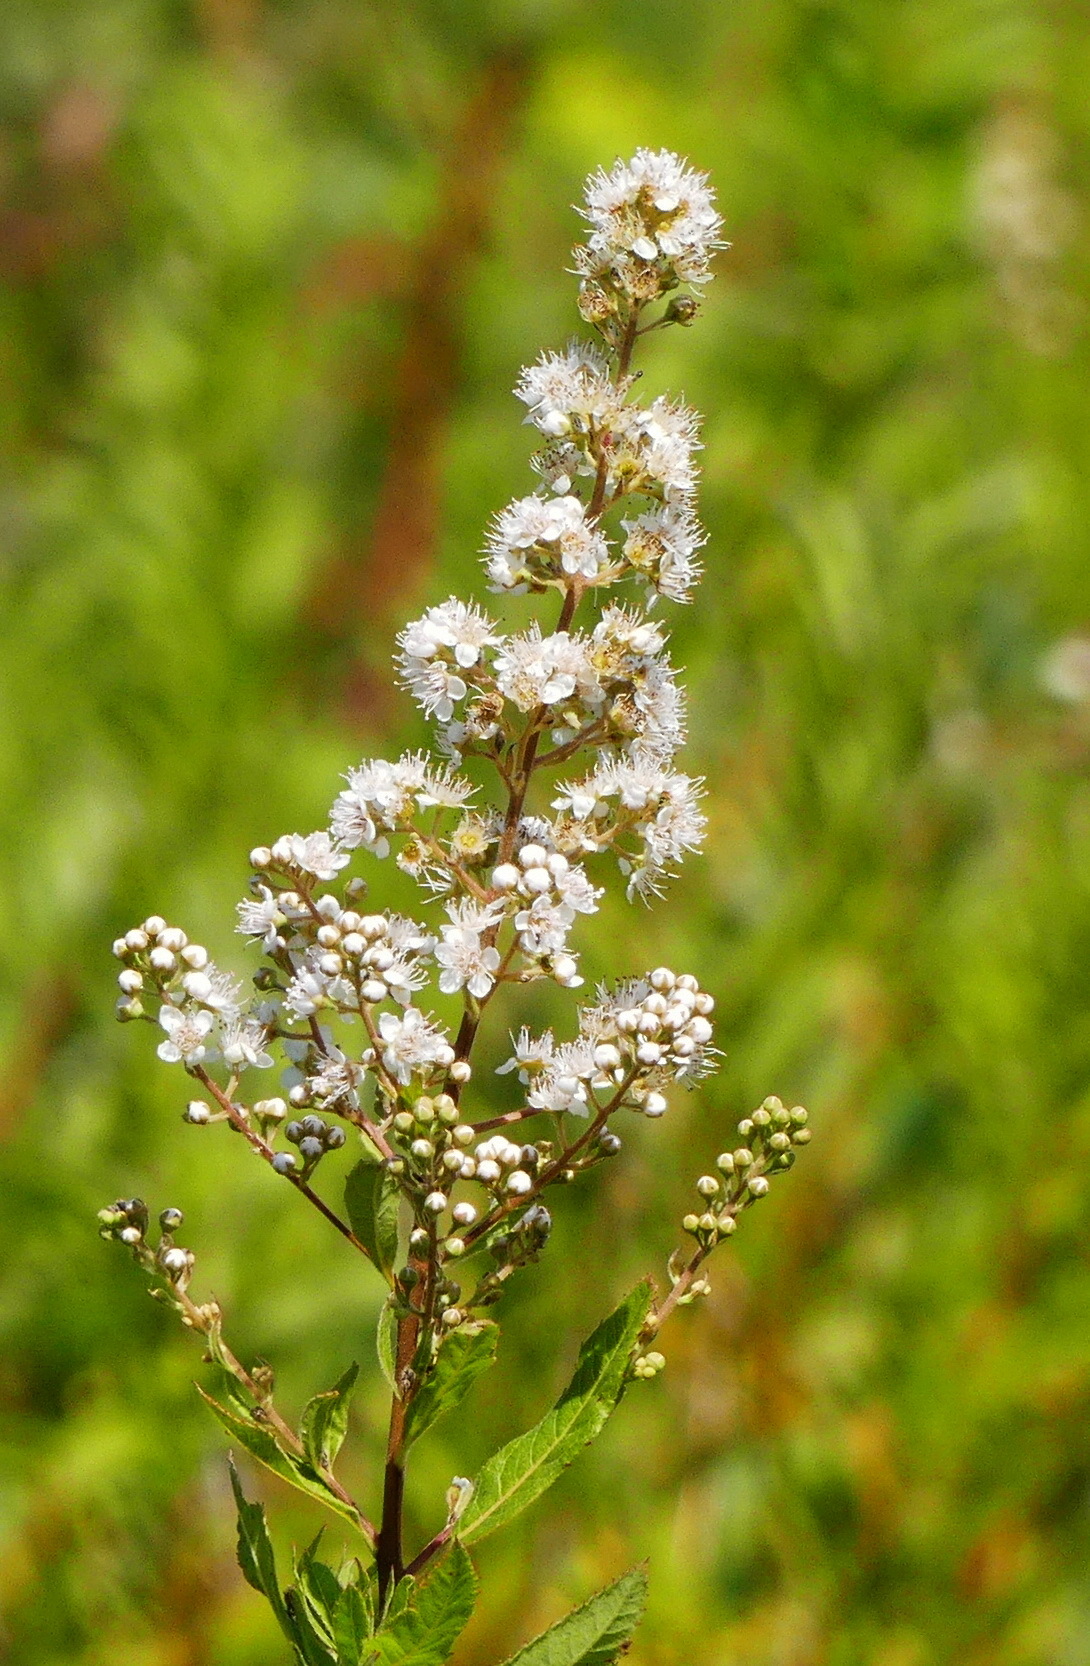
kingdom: Plantae
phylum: Tracheophyta
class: Magnoliopsida
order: Rosales
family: Rosaceae
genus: Spiraea
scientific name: Spiraea alba
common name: Pale bridewort
